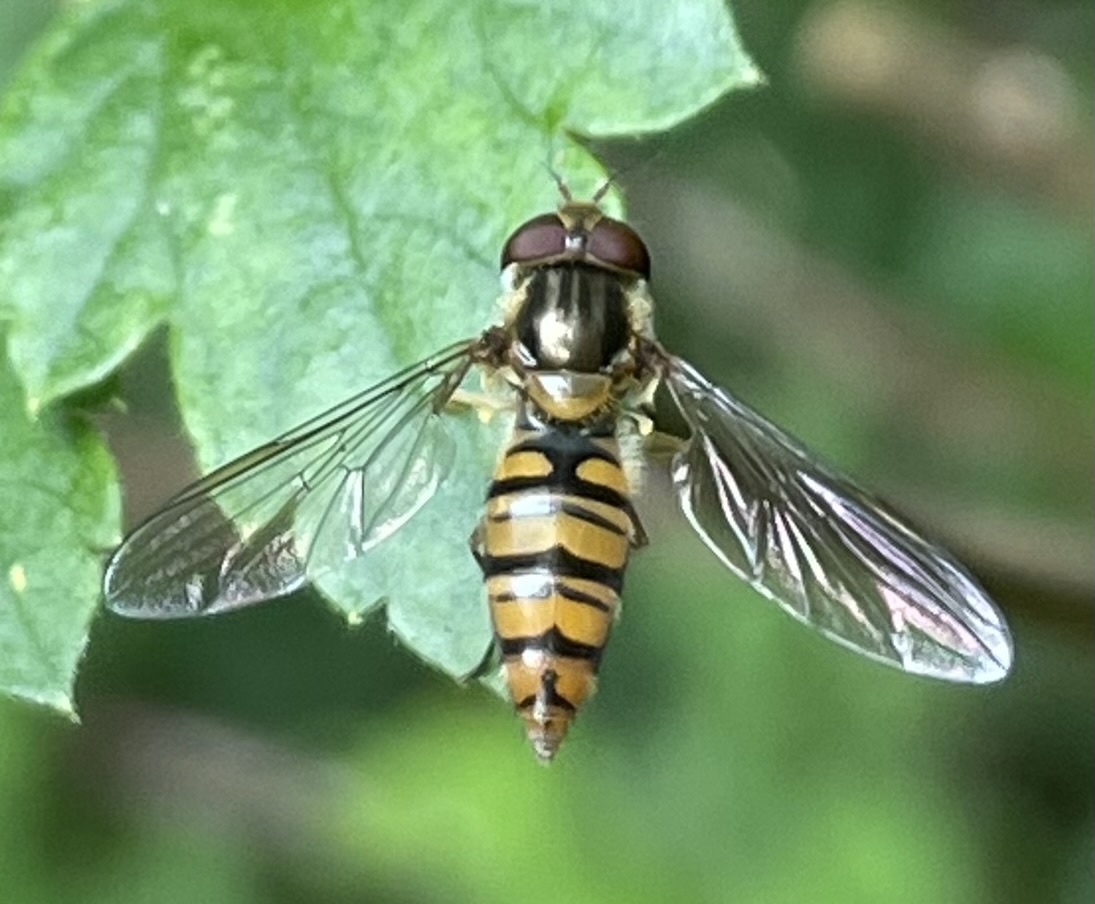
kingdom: Animalia
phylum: Arthropoda
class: Insecta
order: Diptera
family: Syrphidae
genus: Episyrphus
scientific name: Episyrphus balteatus
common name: Marmalade hoverfly
